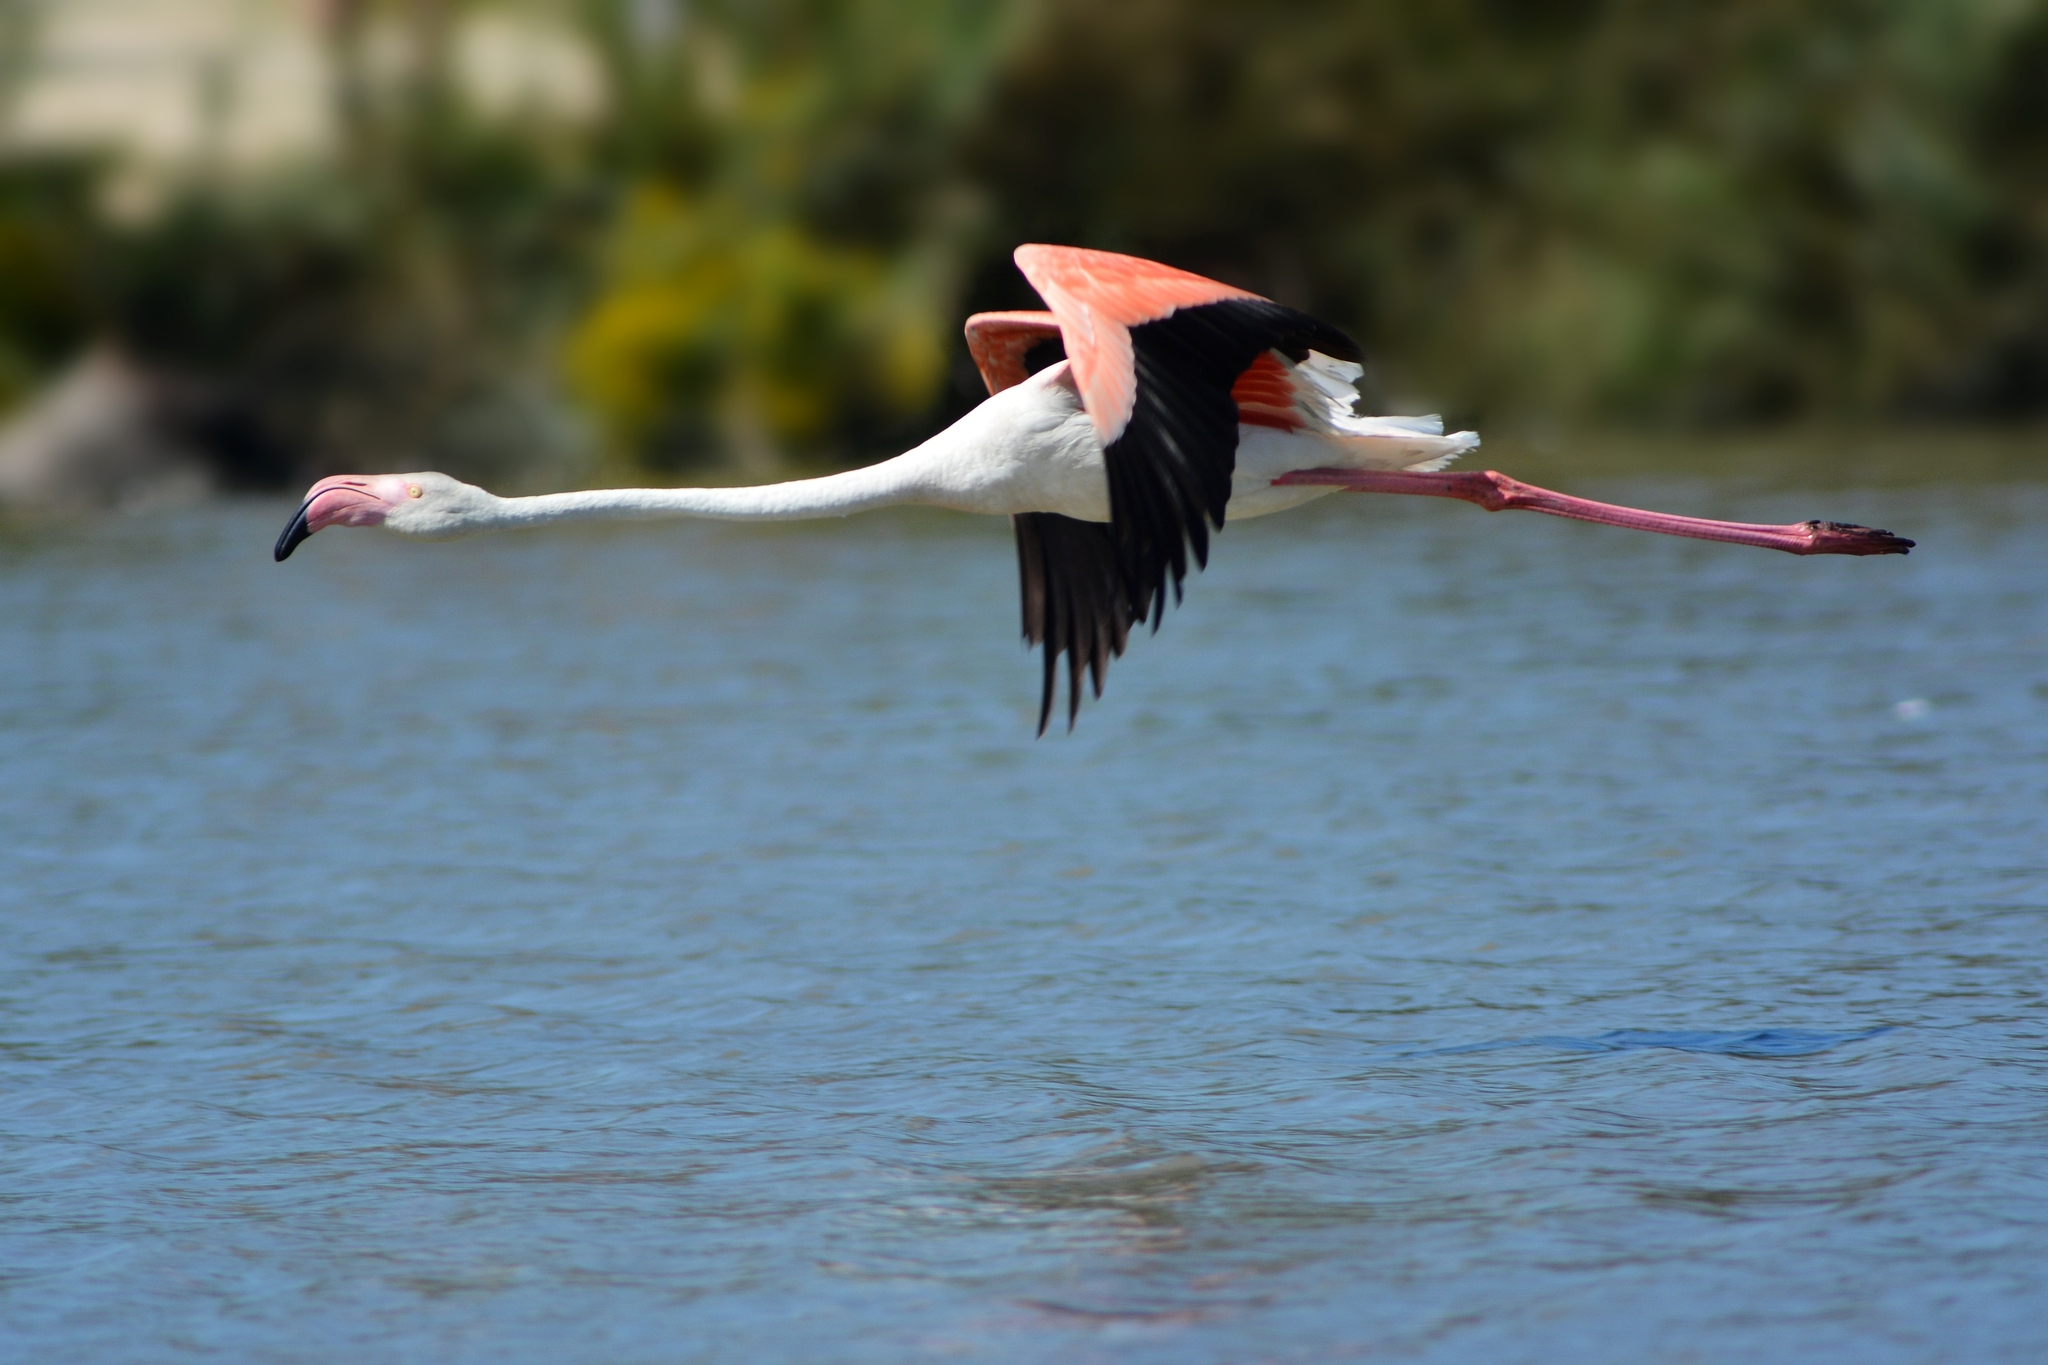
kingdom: Animalia
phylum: Chordata
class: Aves
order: Phoenicopteriformes
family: Phoenicopteridae
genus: Phoenicopterus
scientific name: Phoenicopterus roseus
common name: Greater flamingo
